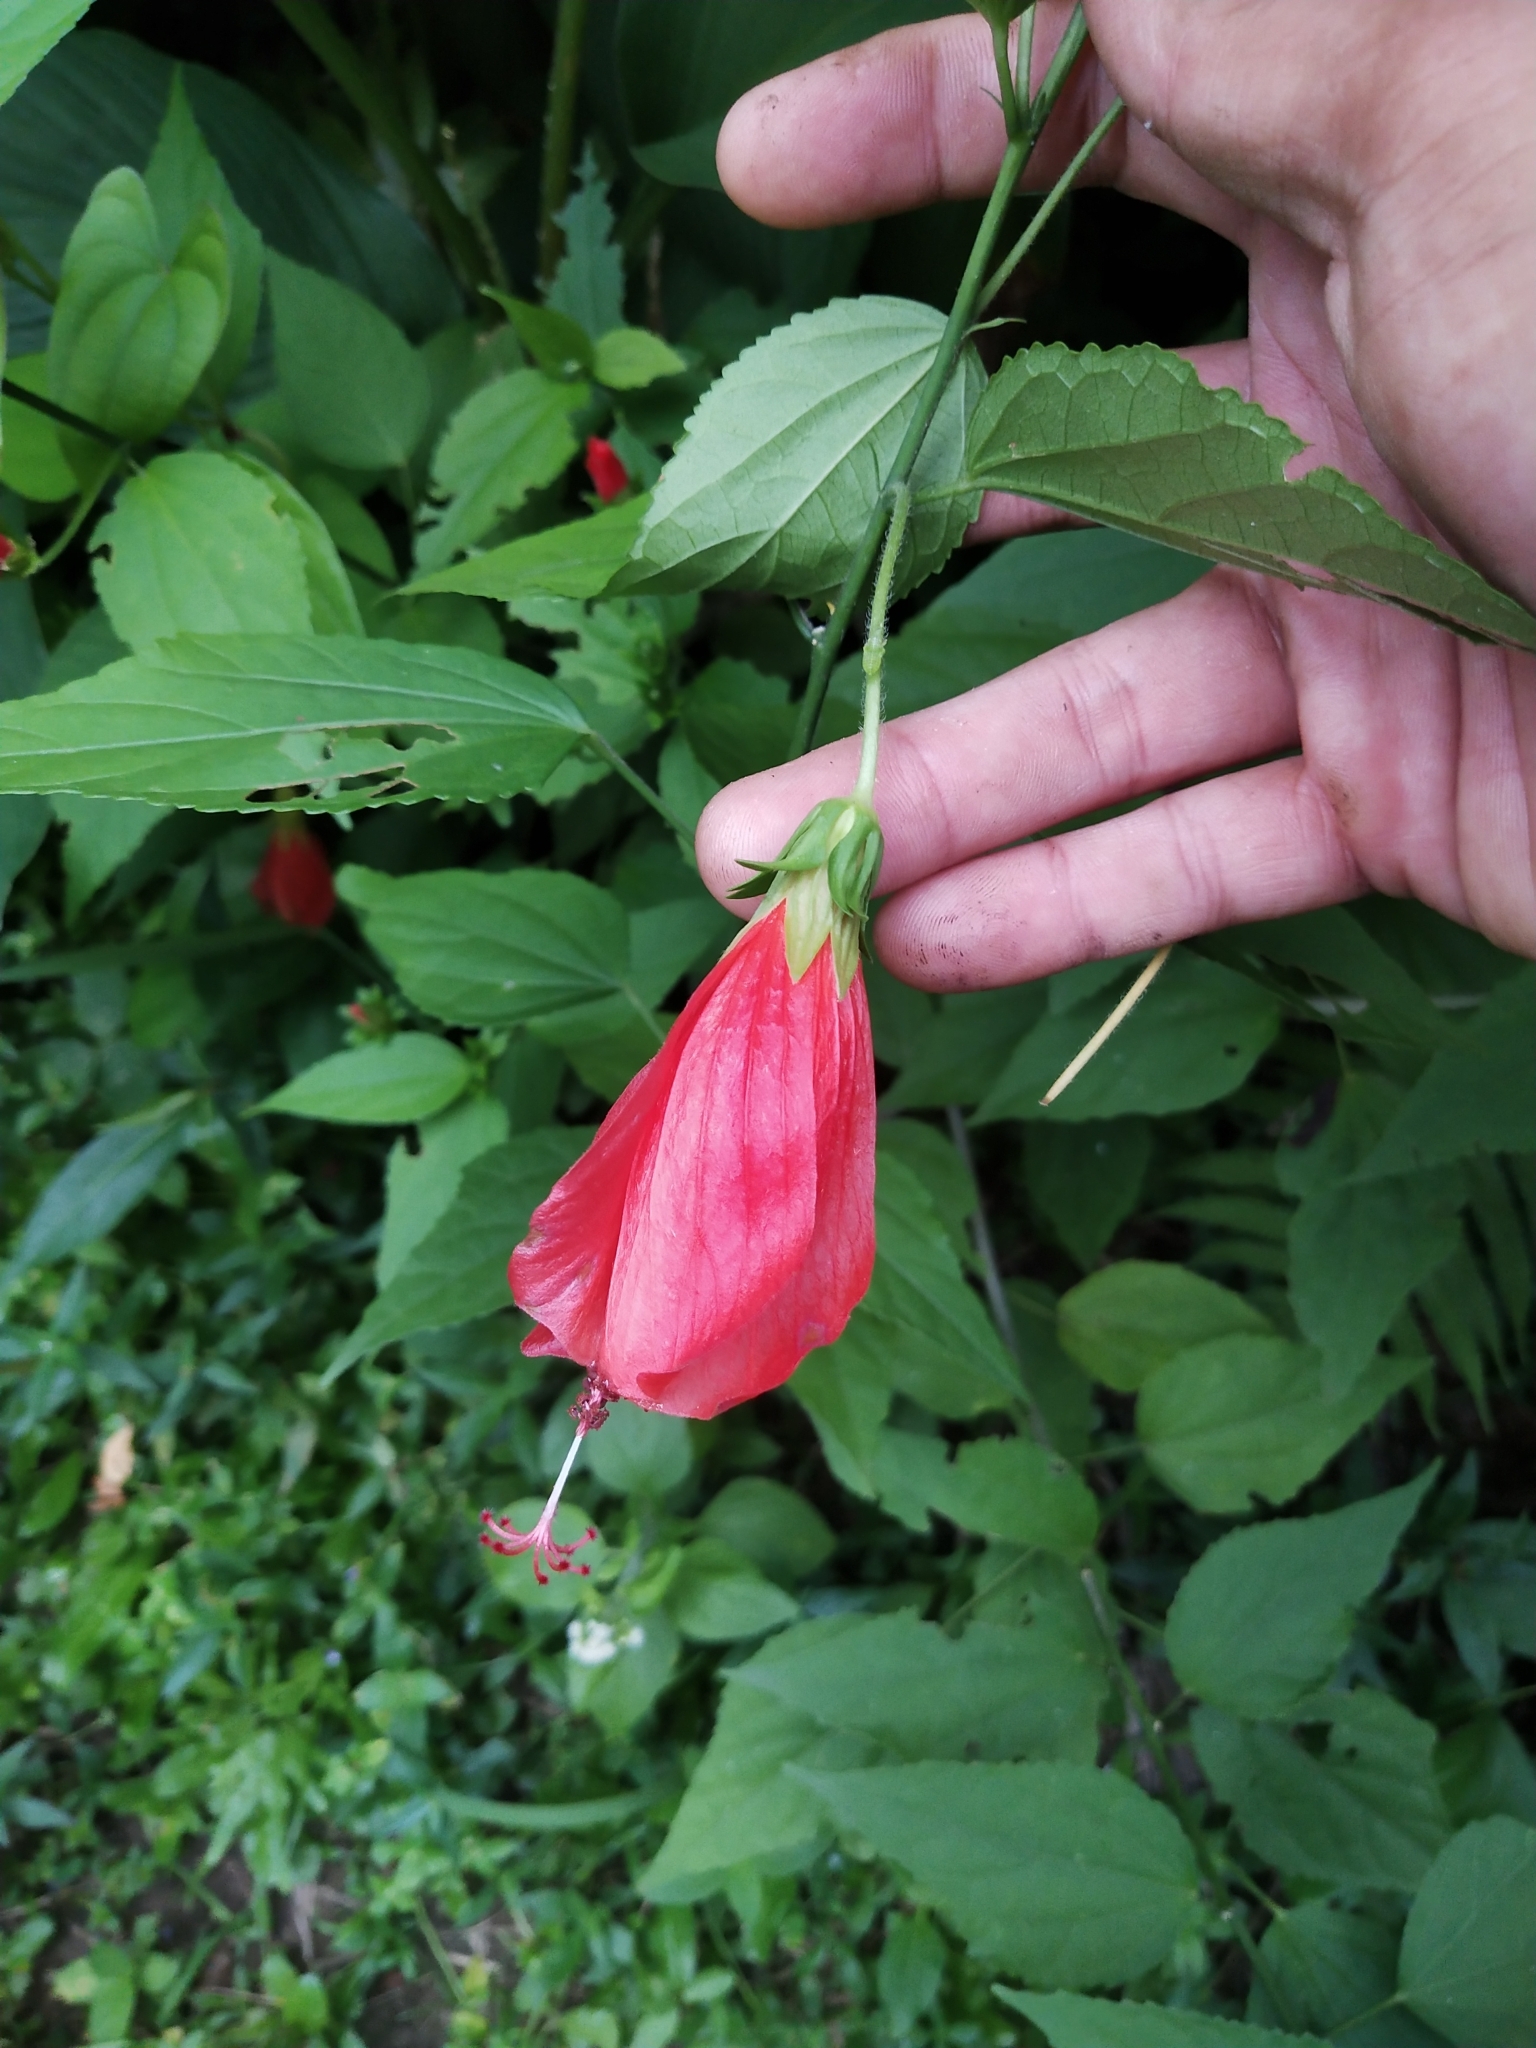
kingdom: Plantae
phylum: Tracheophyta
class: Magnoliopsida
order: Malvales
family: Malvaceae
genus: Malvaviscus
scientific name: Malvaviscus penduliflorus
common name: Mazapan
